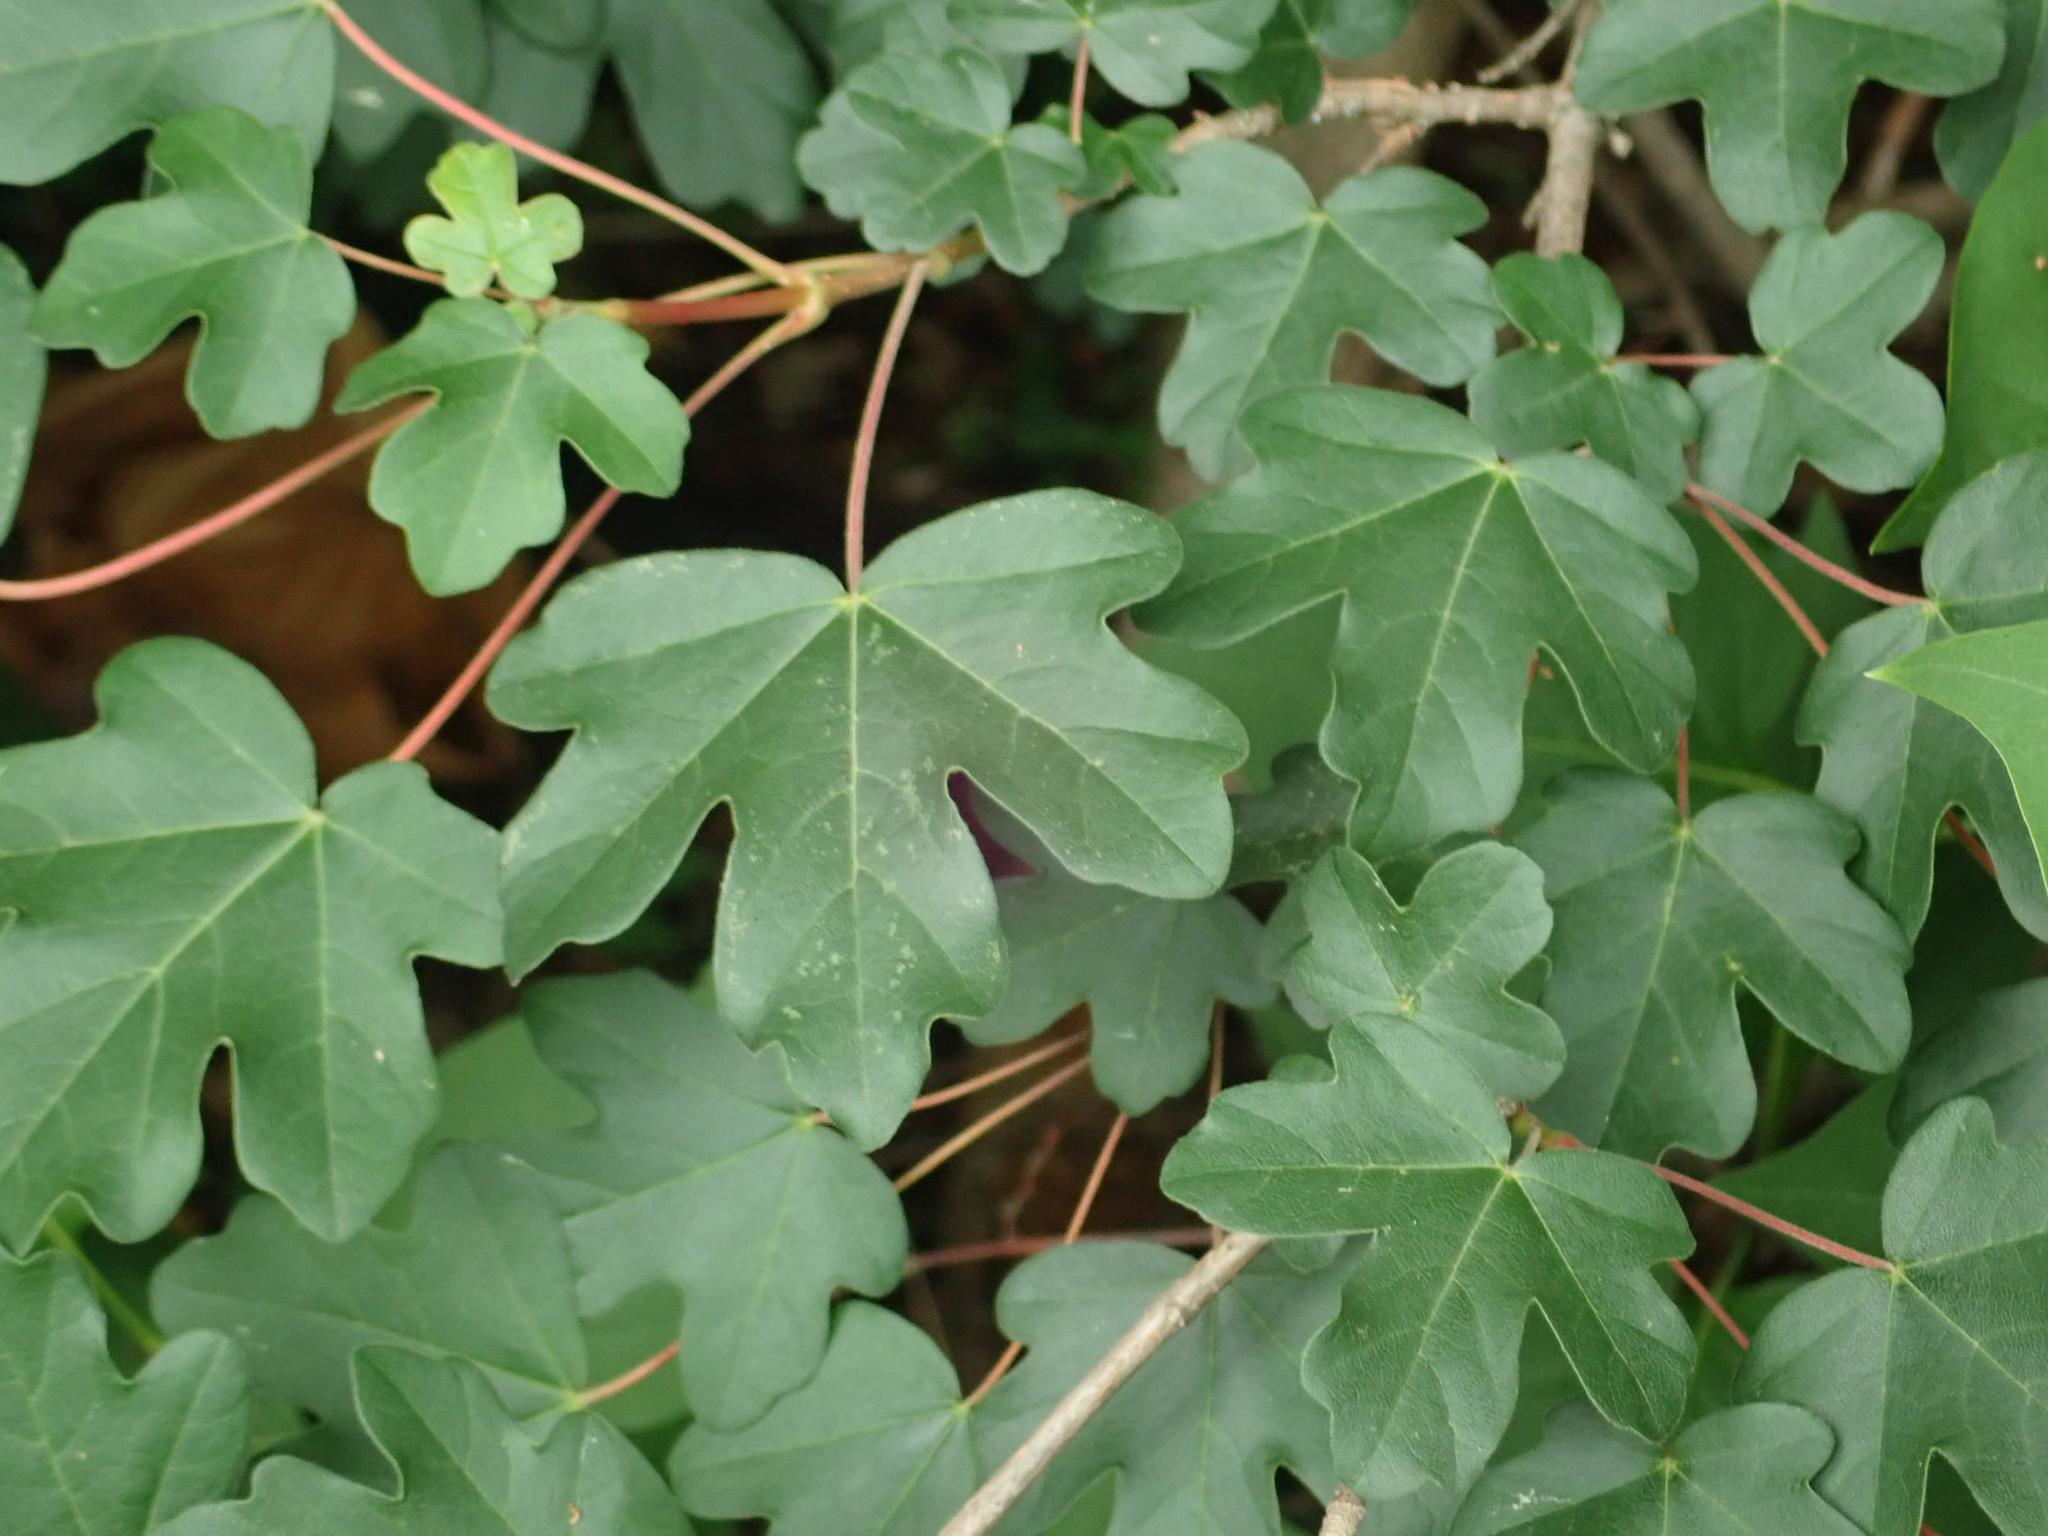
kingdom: Plantae
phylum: Tracheophyta
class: Magnoliopsida
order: Sapindales
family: Sapindaceae
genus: Acer
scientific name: Acer campestre
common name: Field maple
